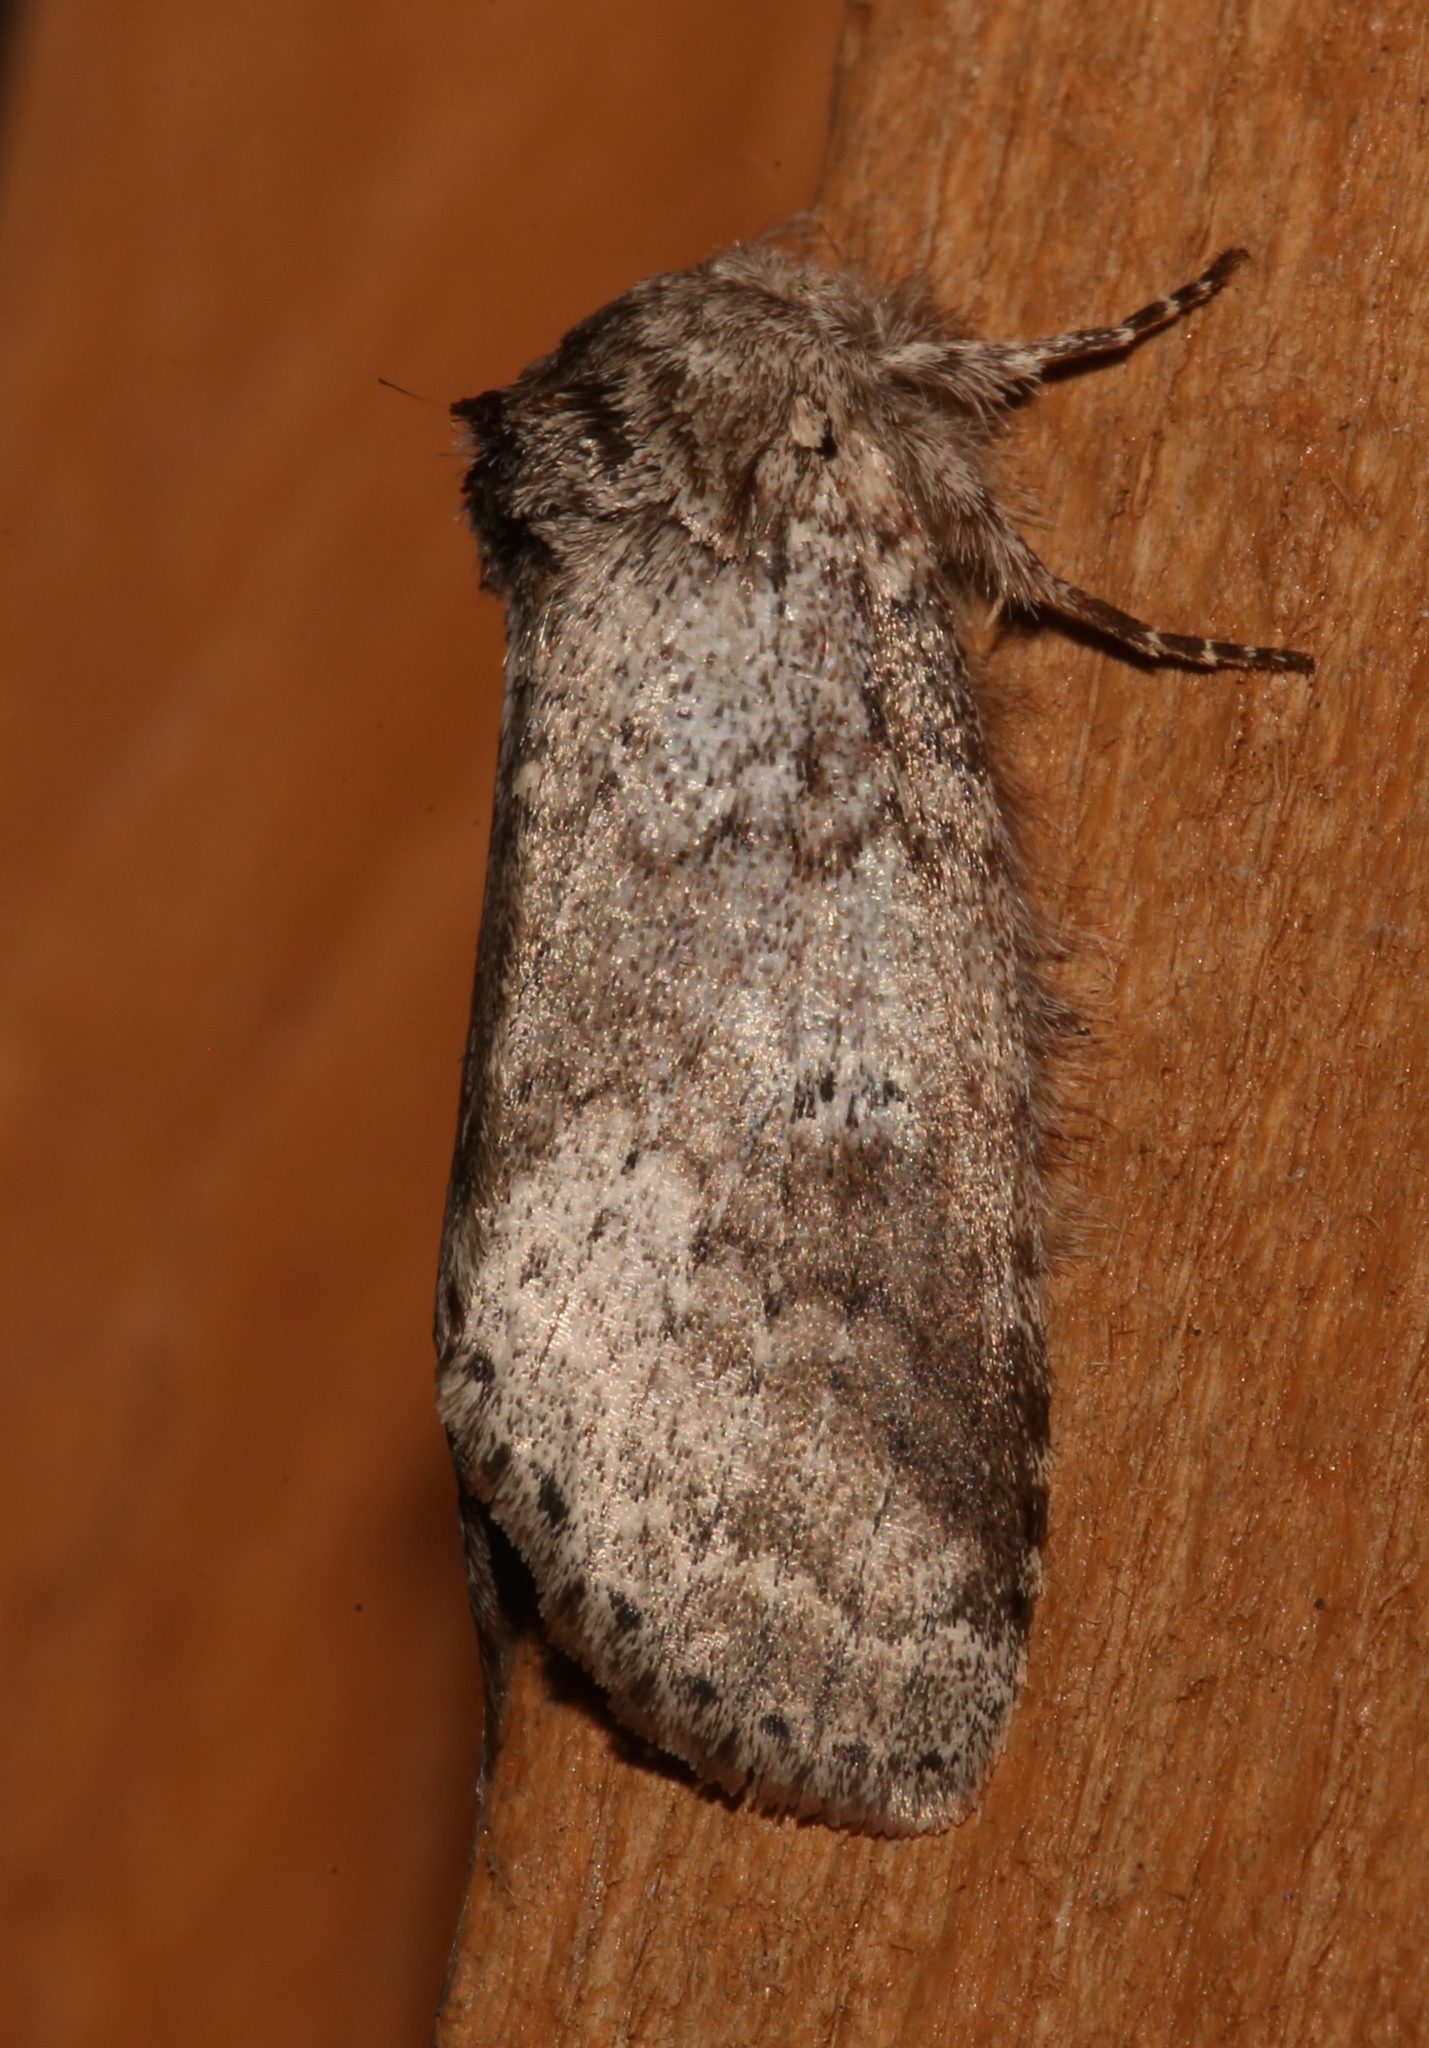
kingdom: Animalia
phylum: Arthropoda
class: Insecta
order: Lepidoptera
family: Notodontidae
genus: Lochmaeus
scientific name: Lochmaeus manteo
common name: Variable oakleaf caterpillar moth
